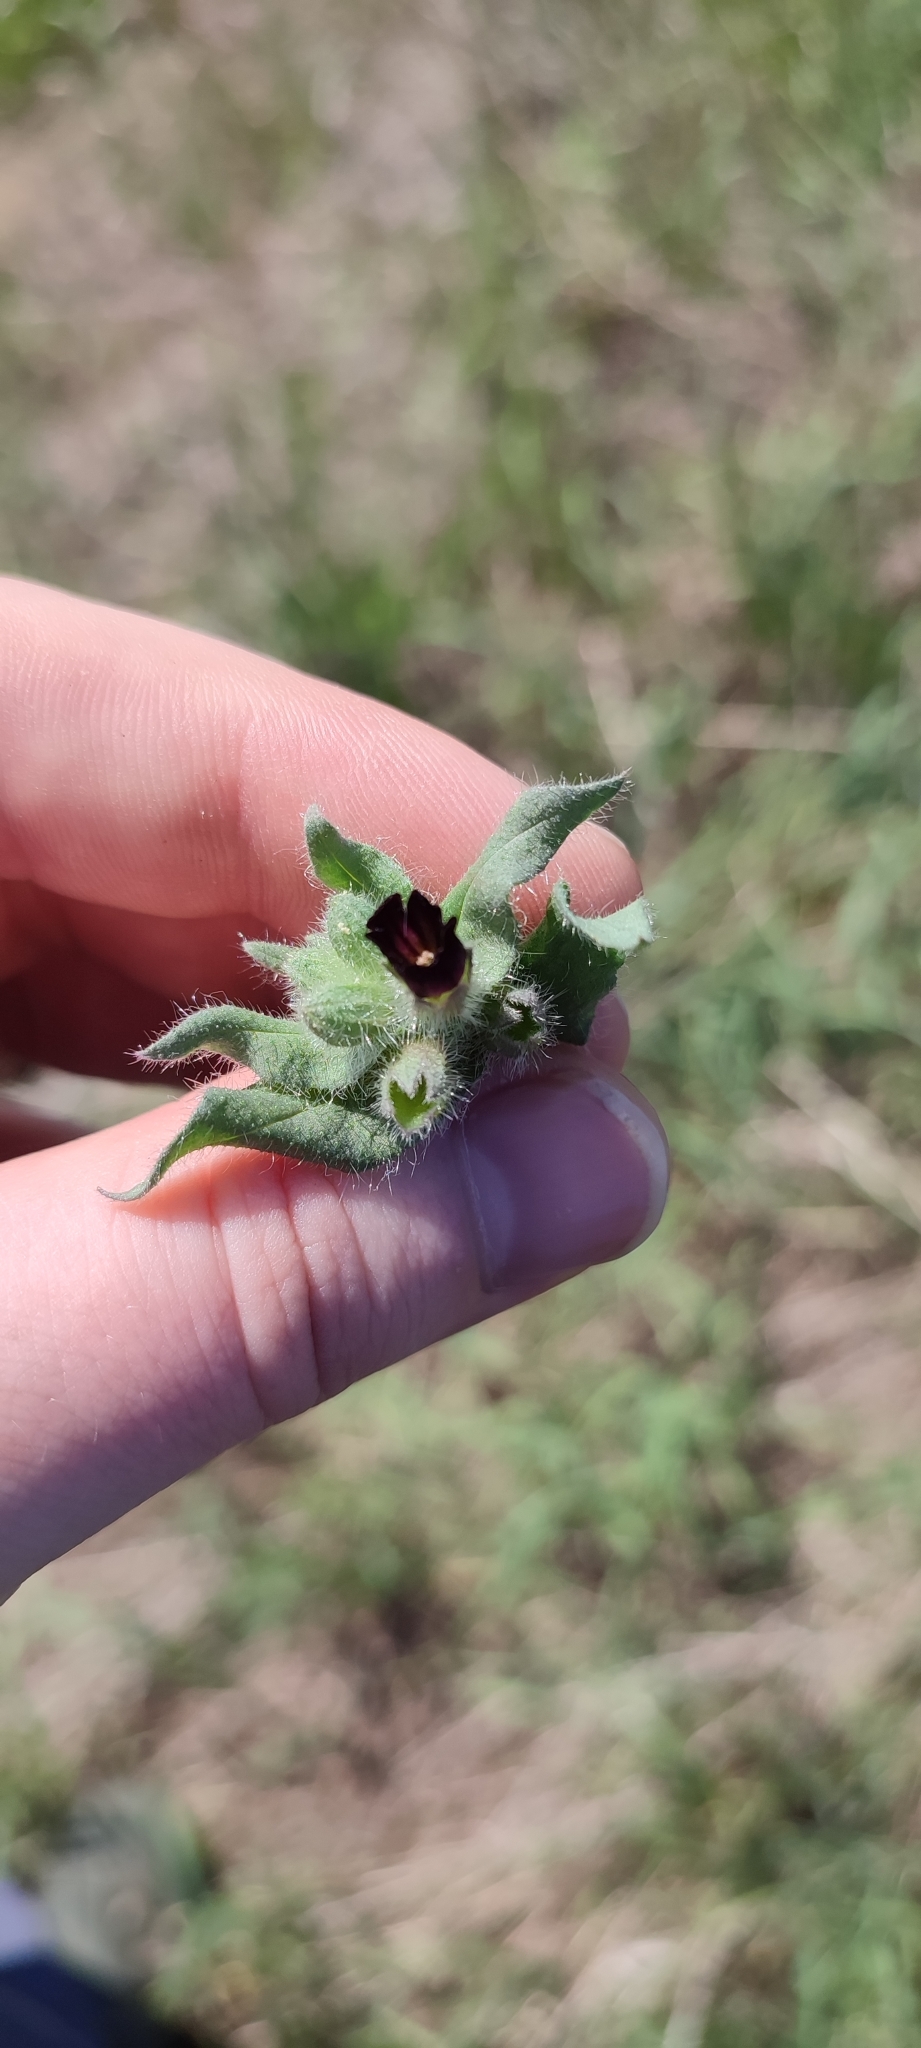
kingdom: Plantae
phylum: Tracheophyta
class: Magnoliopsida
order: Boraginales
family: Boraginaceae
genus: Nonea
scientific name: Nonea pulla
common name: Brown nonea
